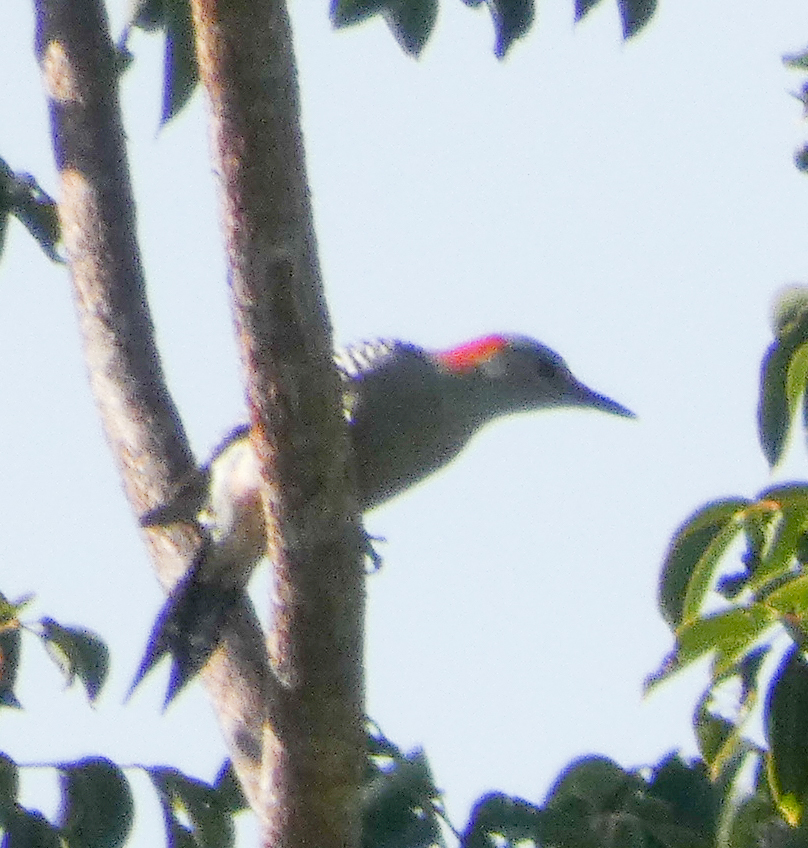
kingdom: Animalia
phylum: Chordata
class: Aves
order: Piciformes
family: Picidae
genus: Melanerpes
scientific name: Melanerpes carolinus
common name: Red-bellied woodpecker
